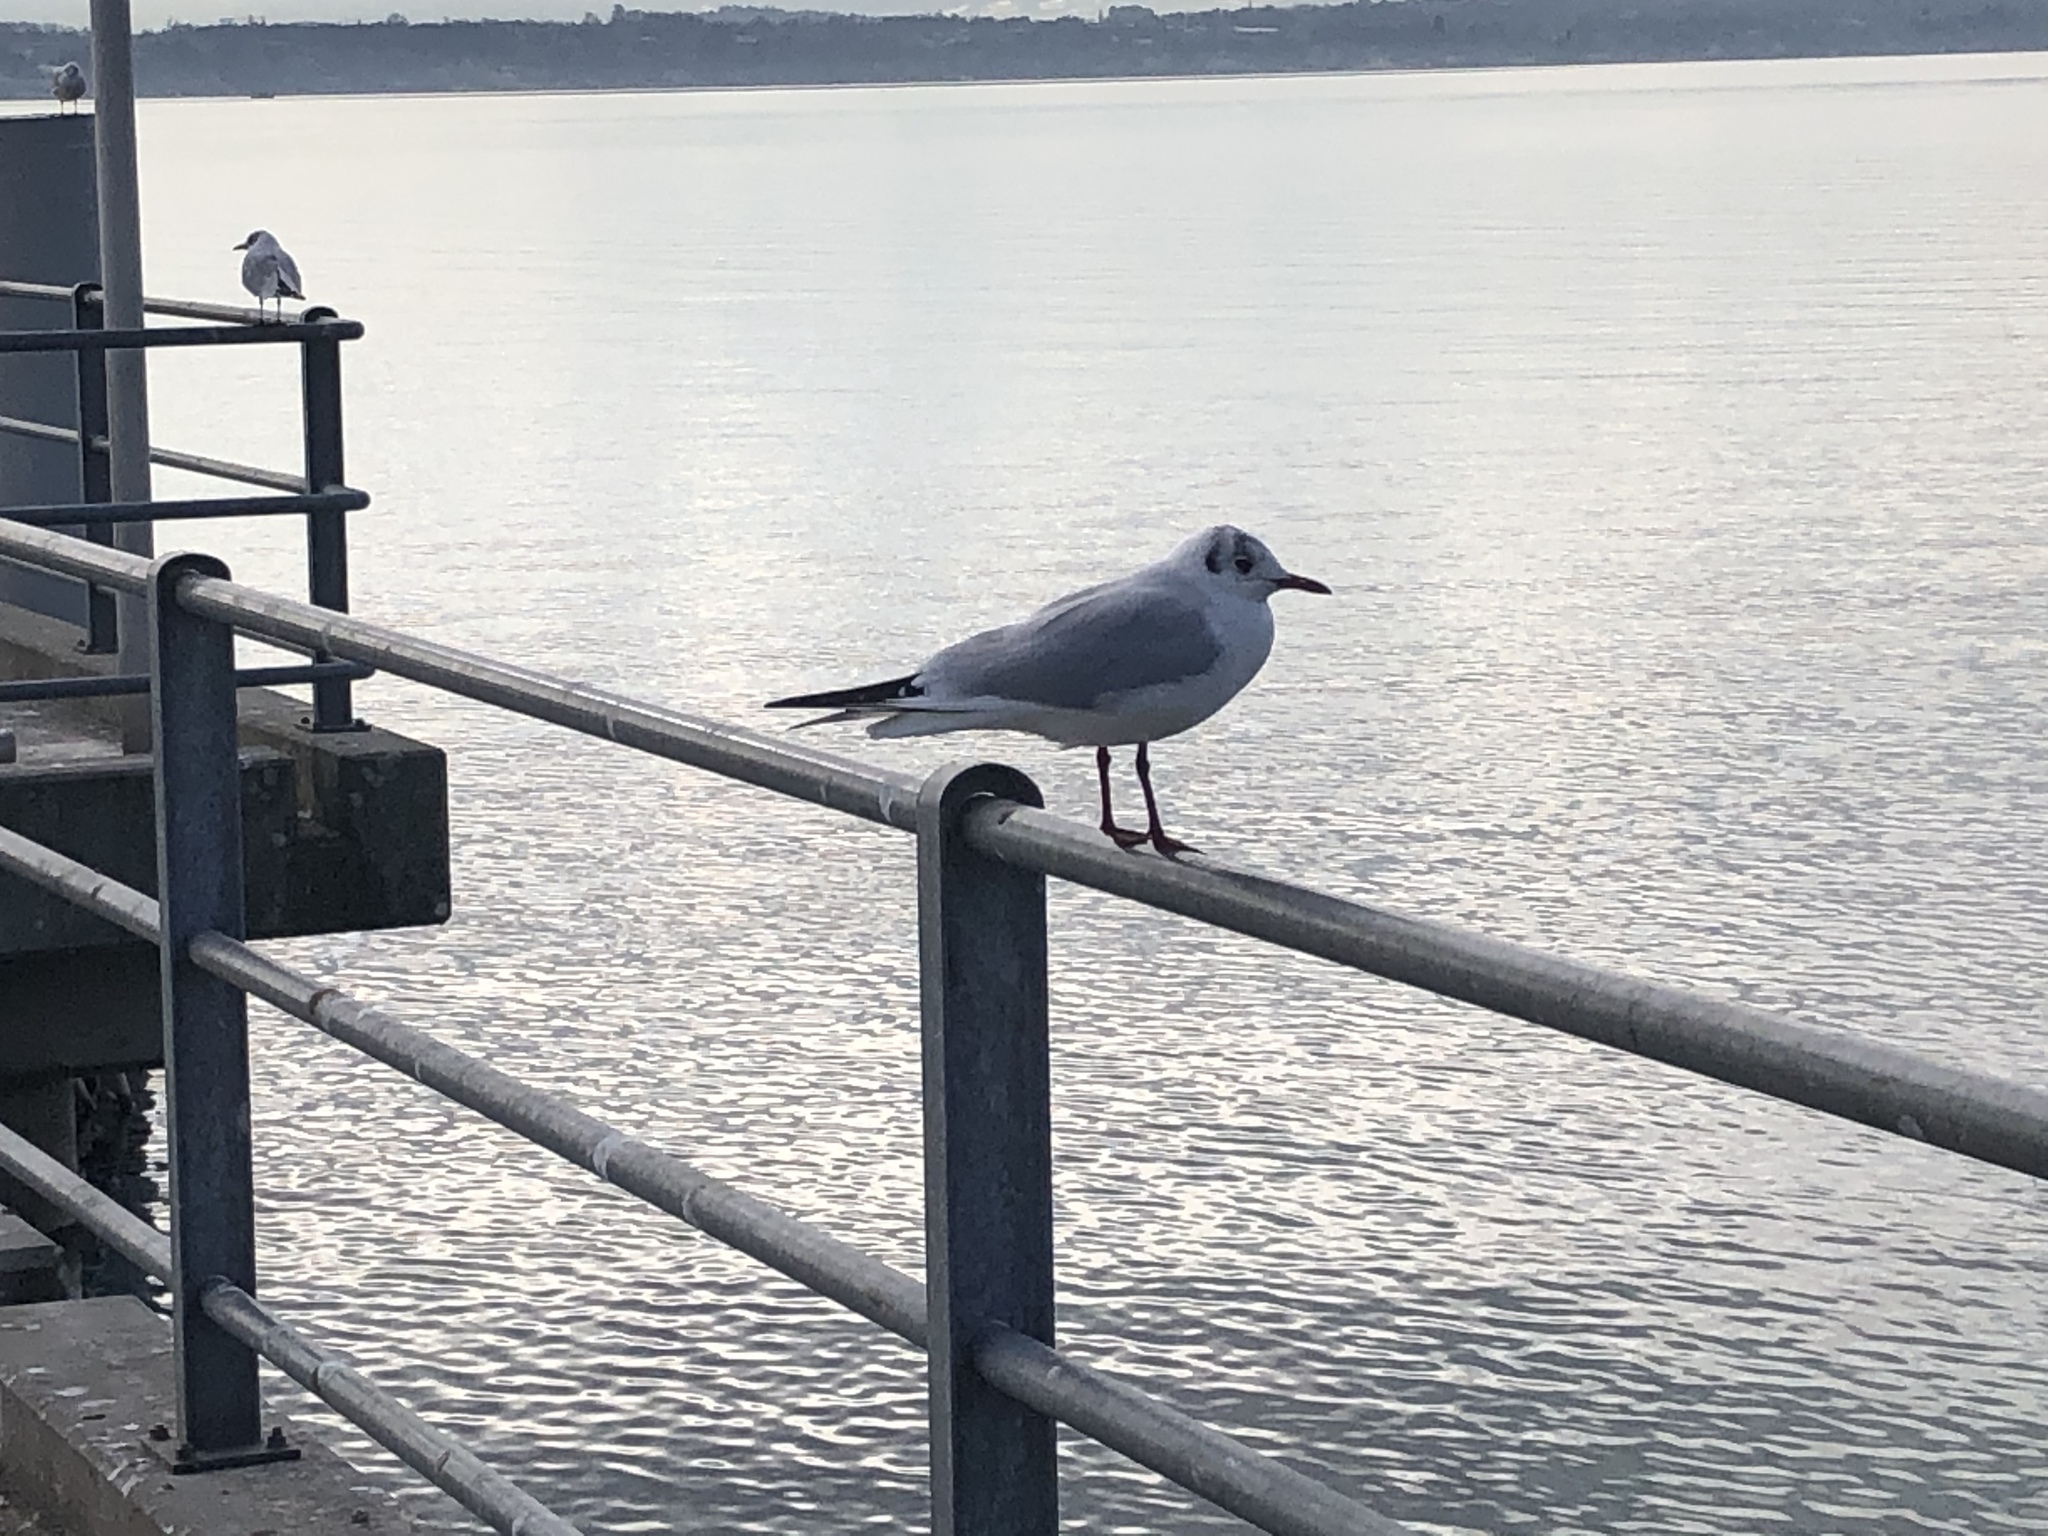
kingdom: Animalia
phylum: Chordata
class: Aves
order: Charadriiformes
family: Laridae
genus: Chroicocephalus
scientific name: Chroicocephalus ridibundus
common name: Black-headed gull
